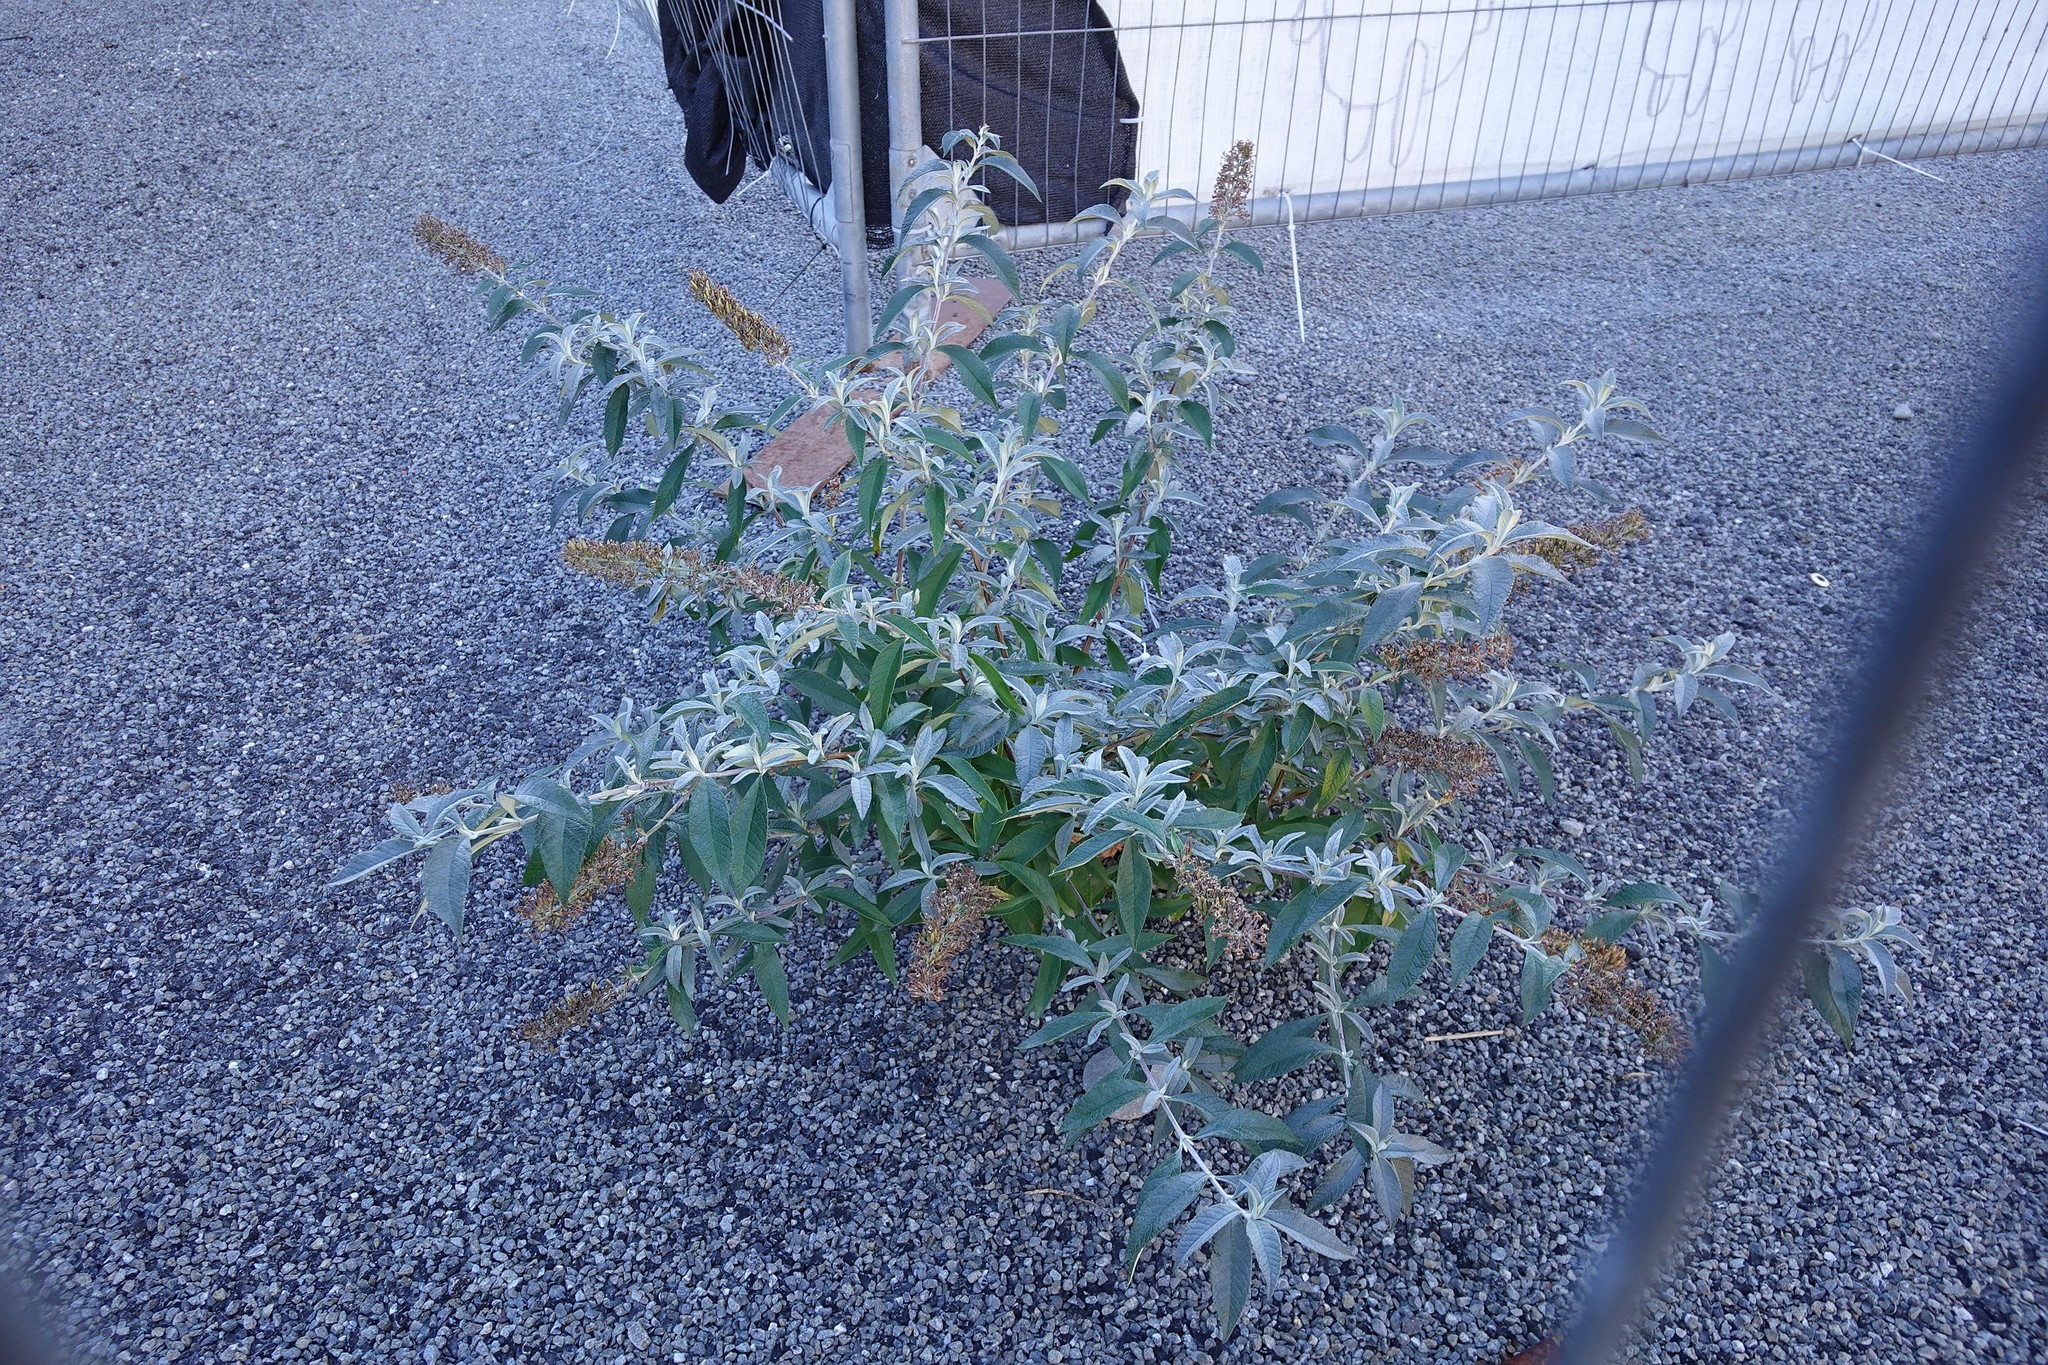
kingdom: Plantae
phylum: Tracheophyta
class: Magnoliopsida
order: Lamiales
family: Scrophulariaceae
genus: Buddleja
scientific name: Buddleja davidii
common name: Butterfly-bush
